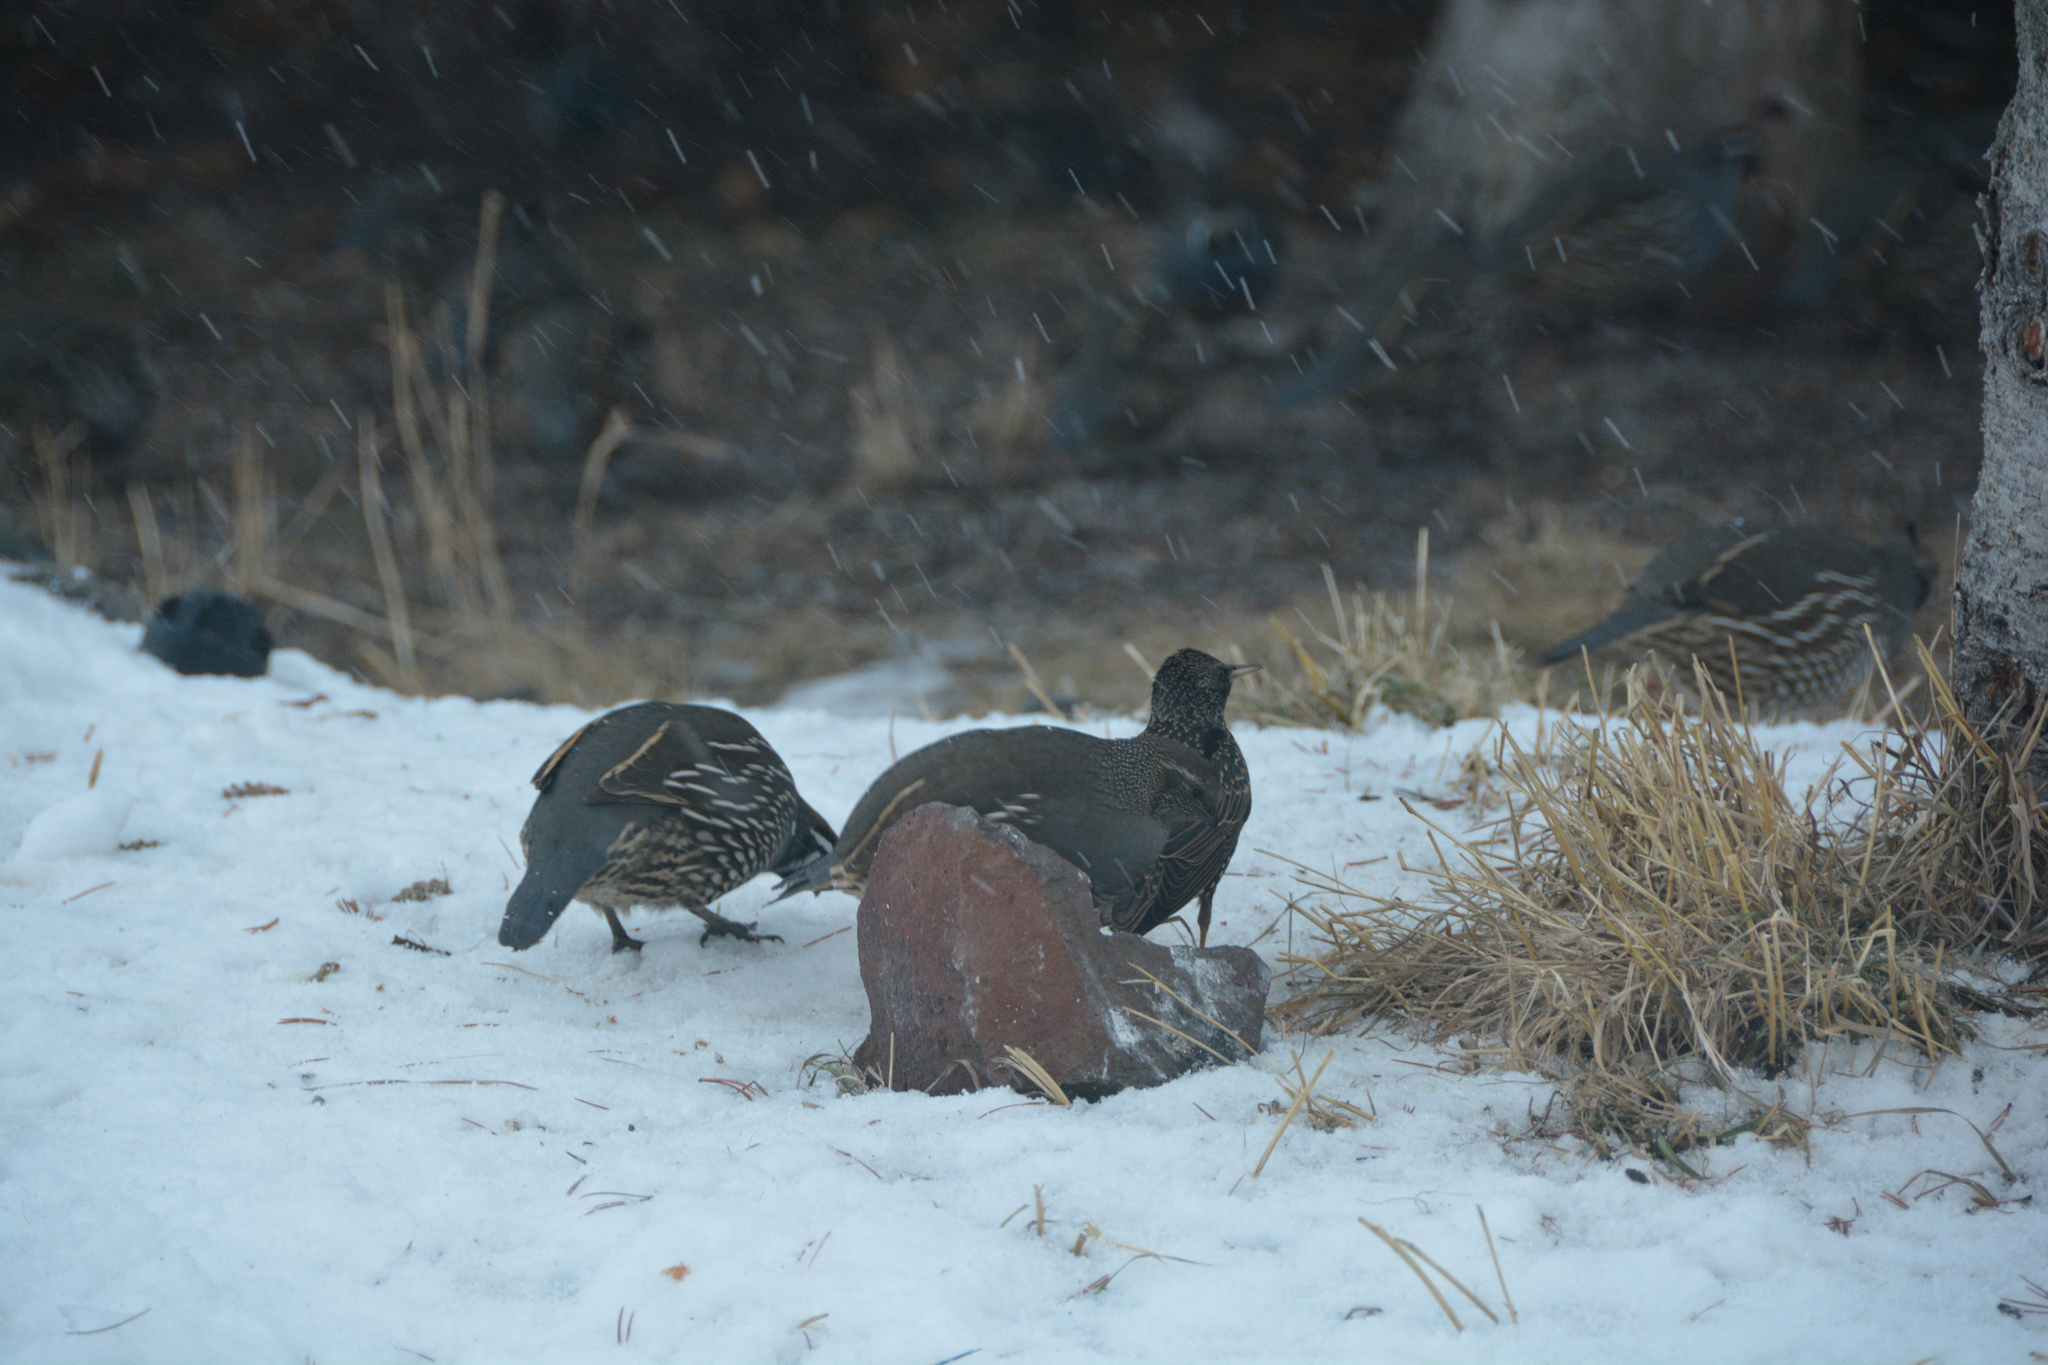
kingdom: Animalia
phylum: Chordata
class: Aves
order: Galliformes
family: Odontophoridae
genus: Callipepla
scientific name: Callipepla californica
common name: California quail
